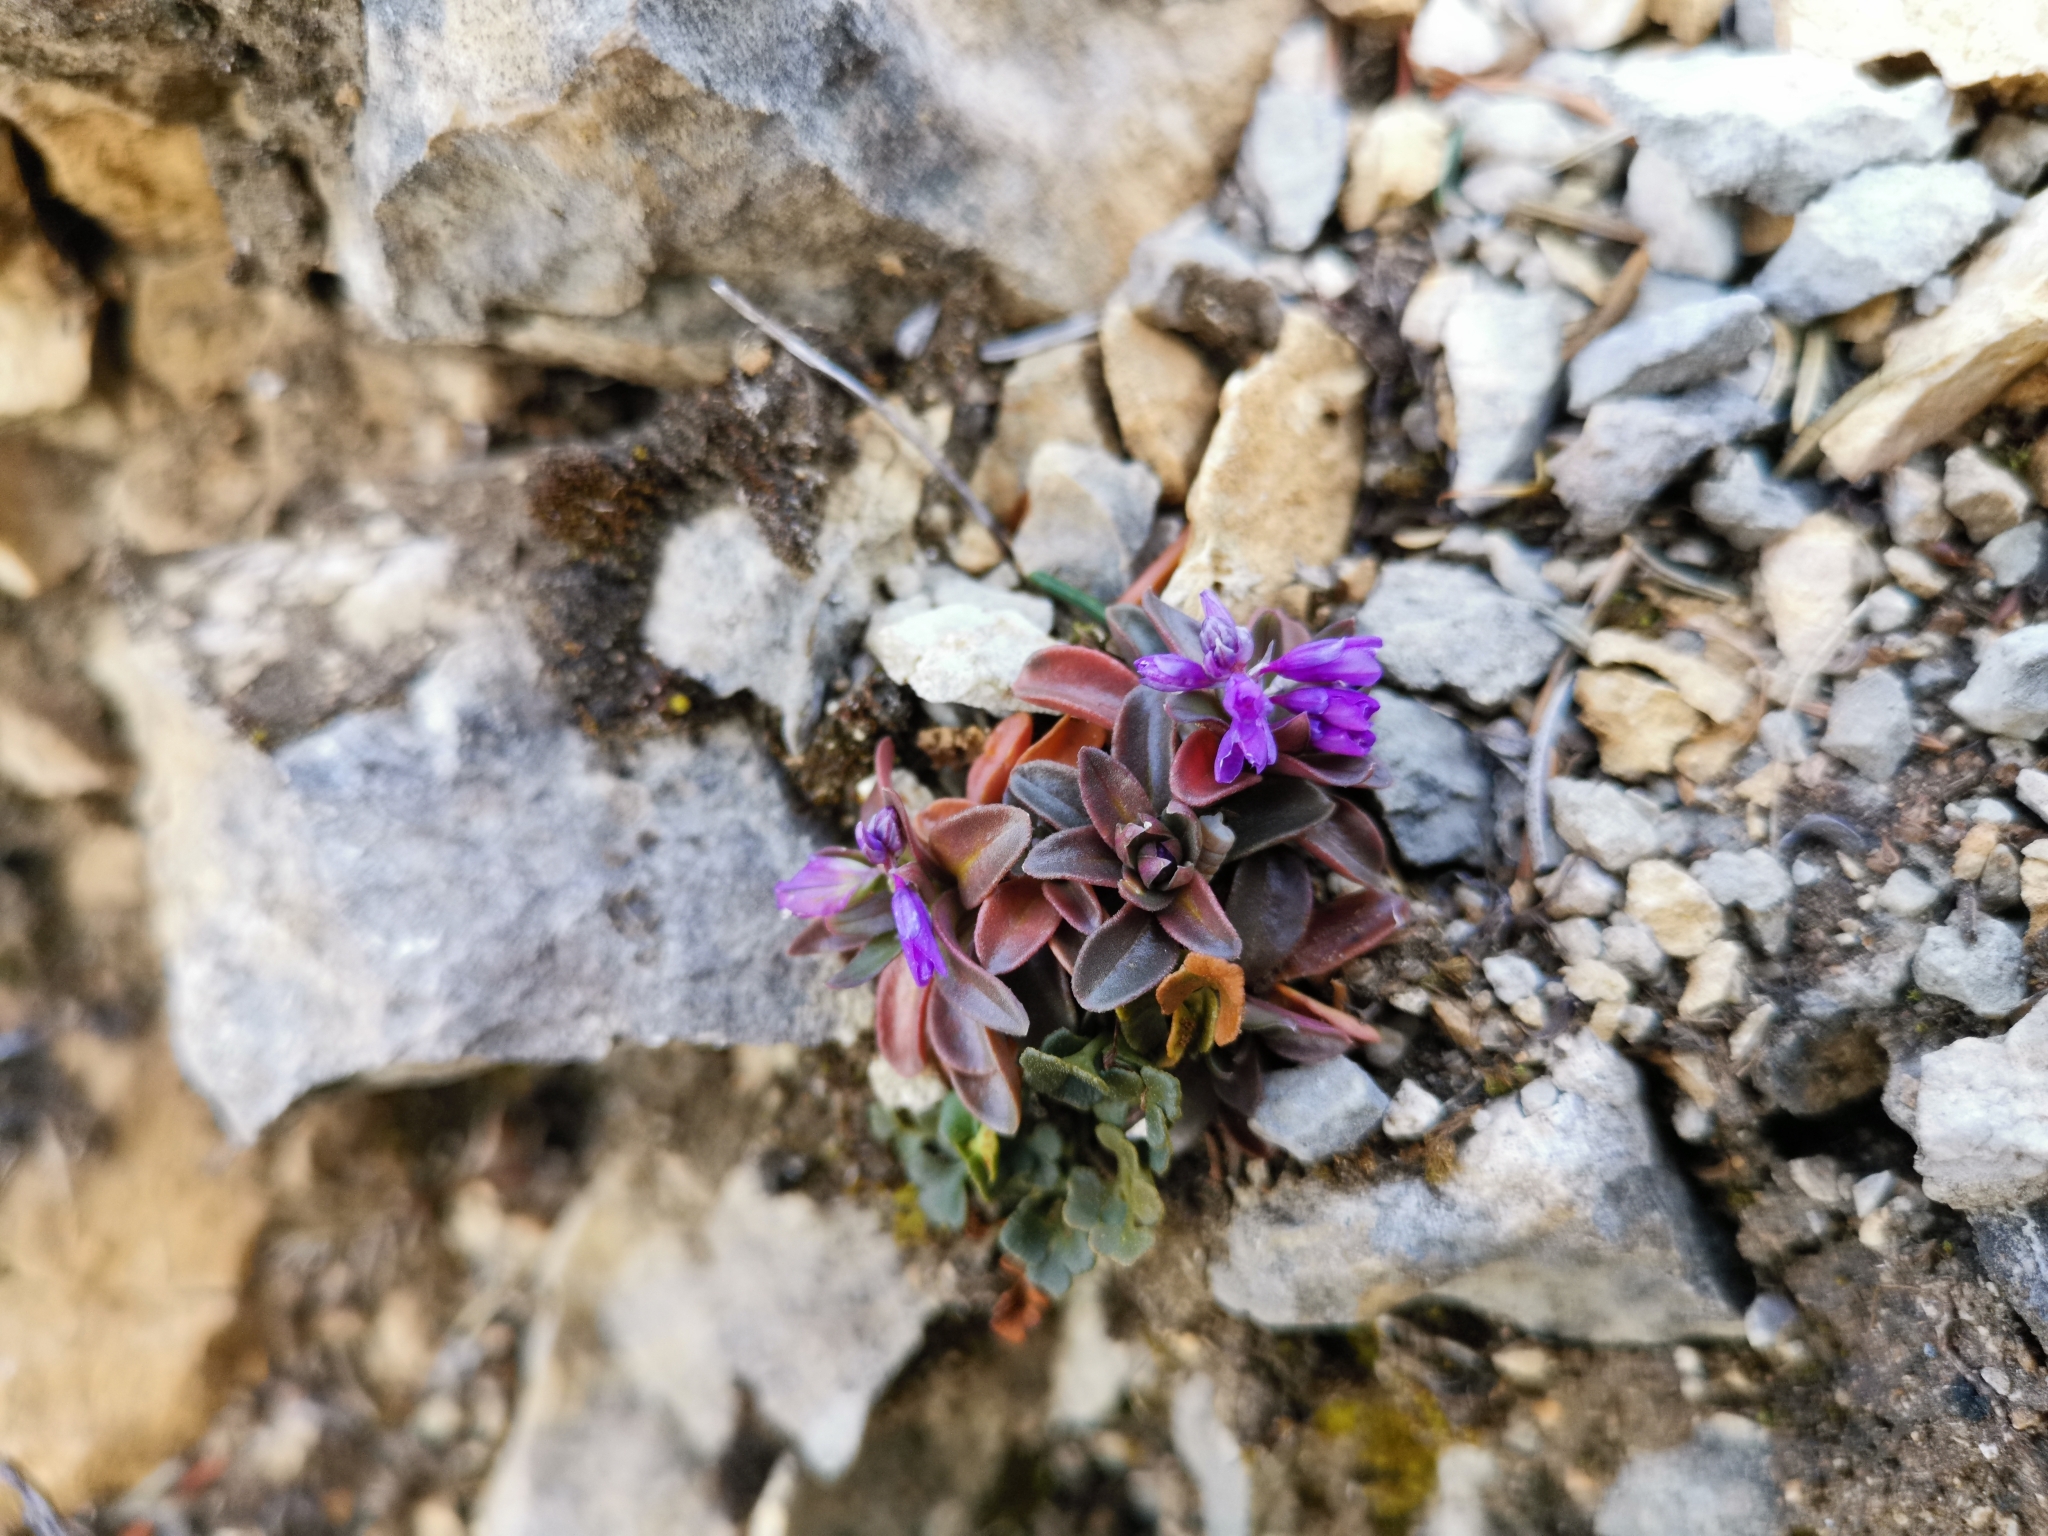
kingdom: Plantae
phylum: Tracheophyta
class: Magnoliopsida
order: Fabales
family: Polygalaceae
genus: Polygala
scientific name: Polygala alpestris
